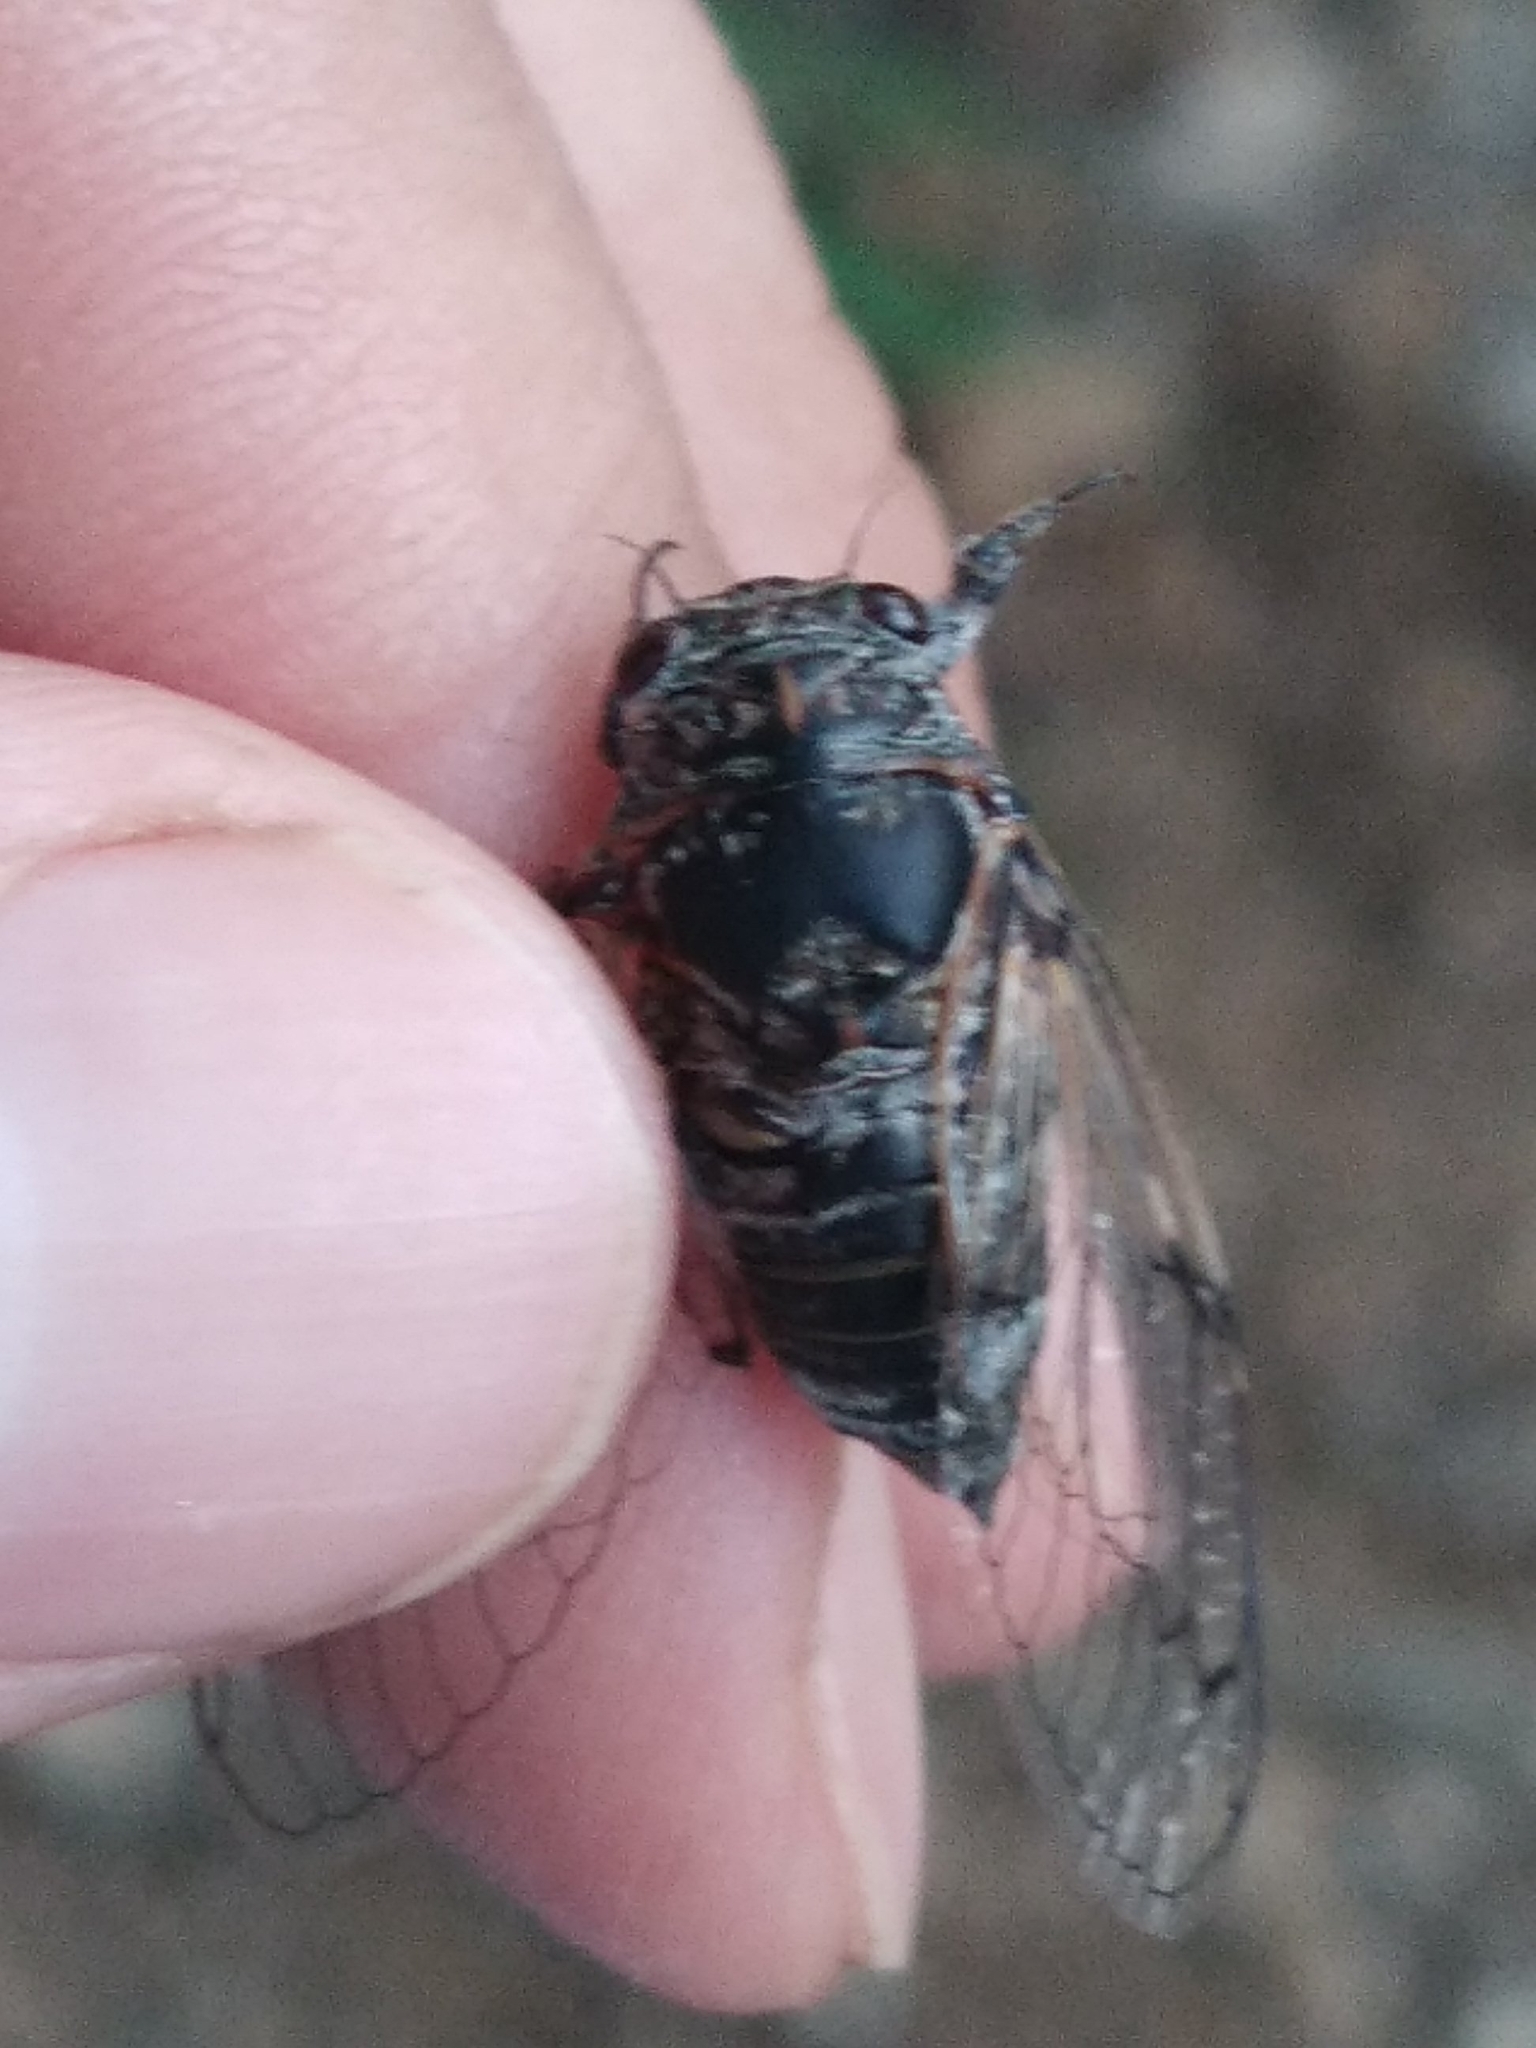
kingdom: Animalia
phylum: Arthropoda
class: Insecta
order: Hemiptera
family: Cicadidae
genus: Cicadatra
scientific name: Cicadatra atra
